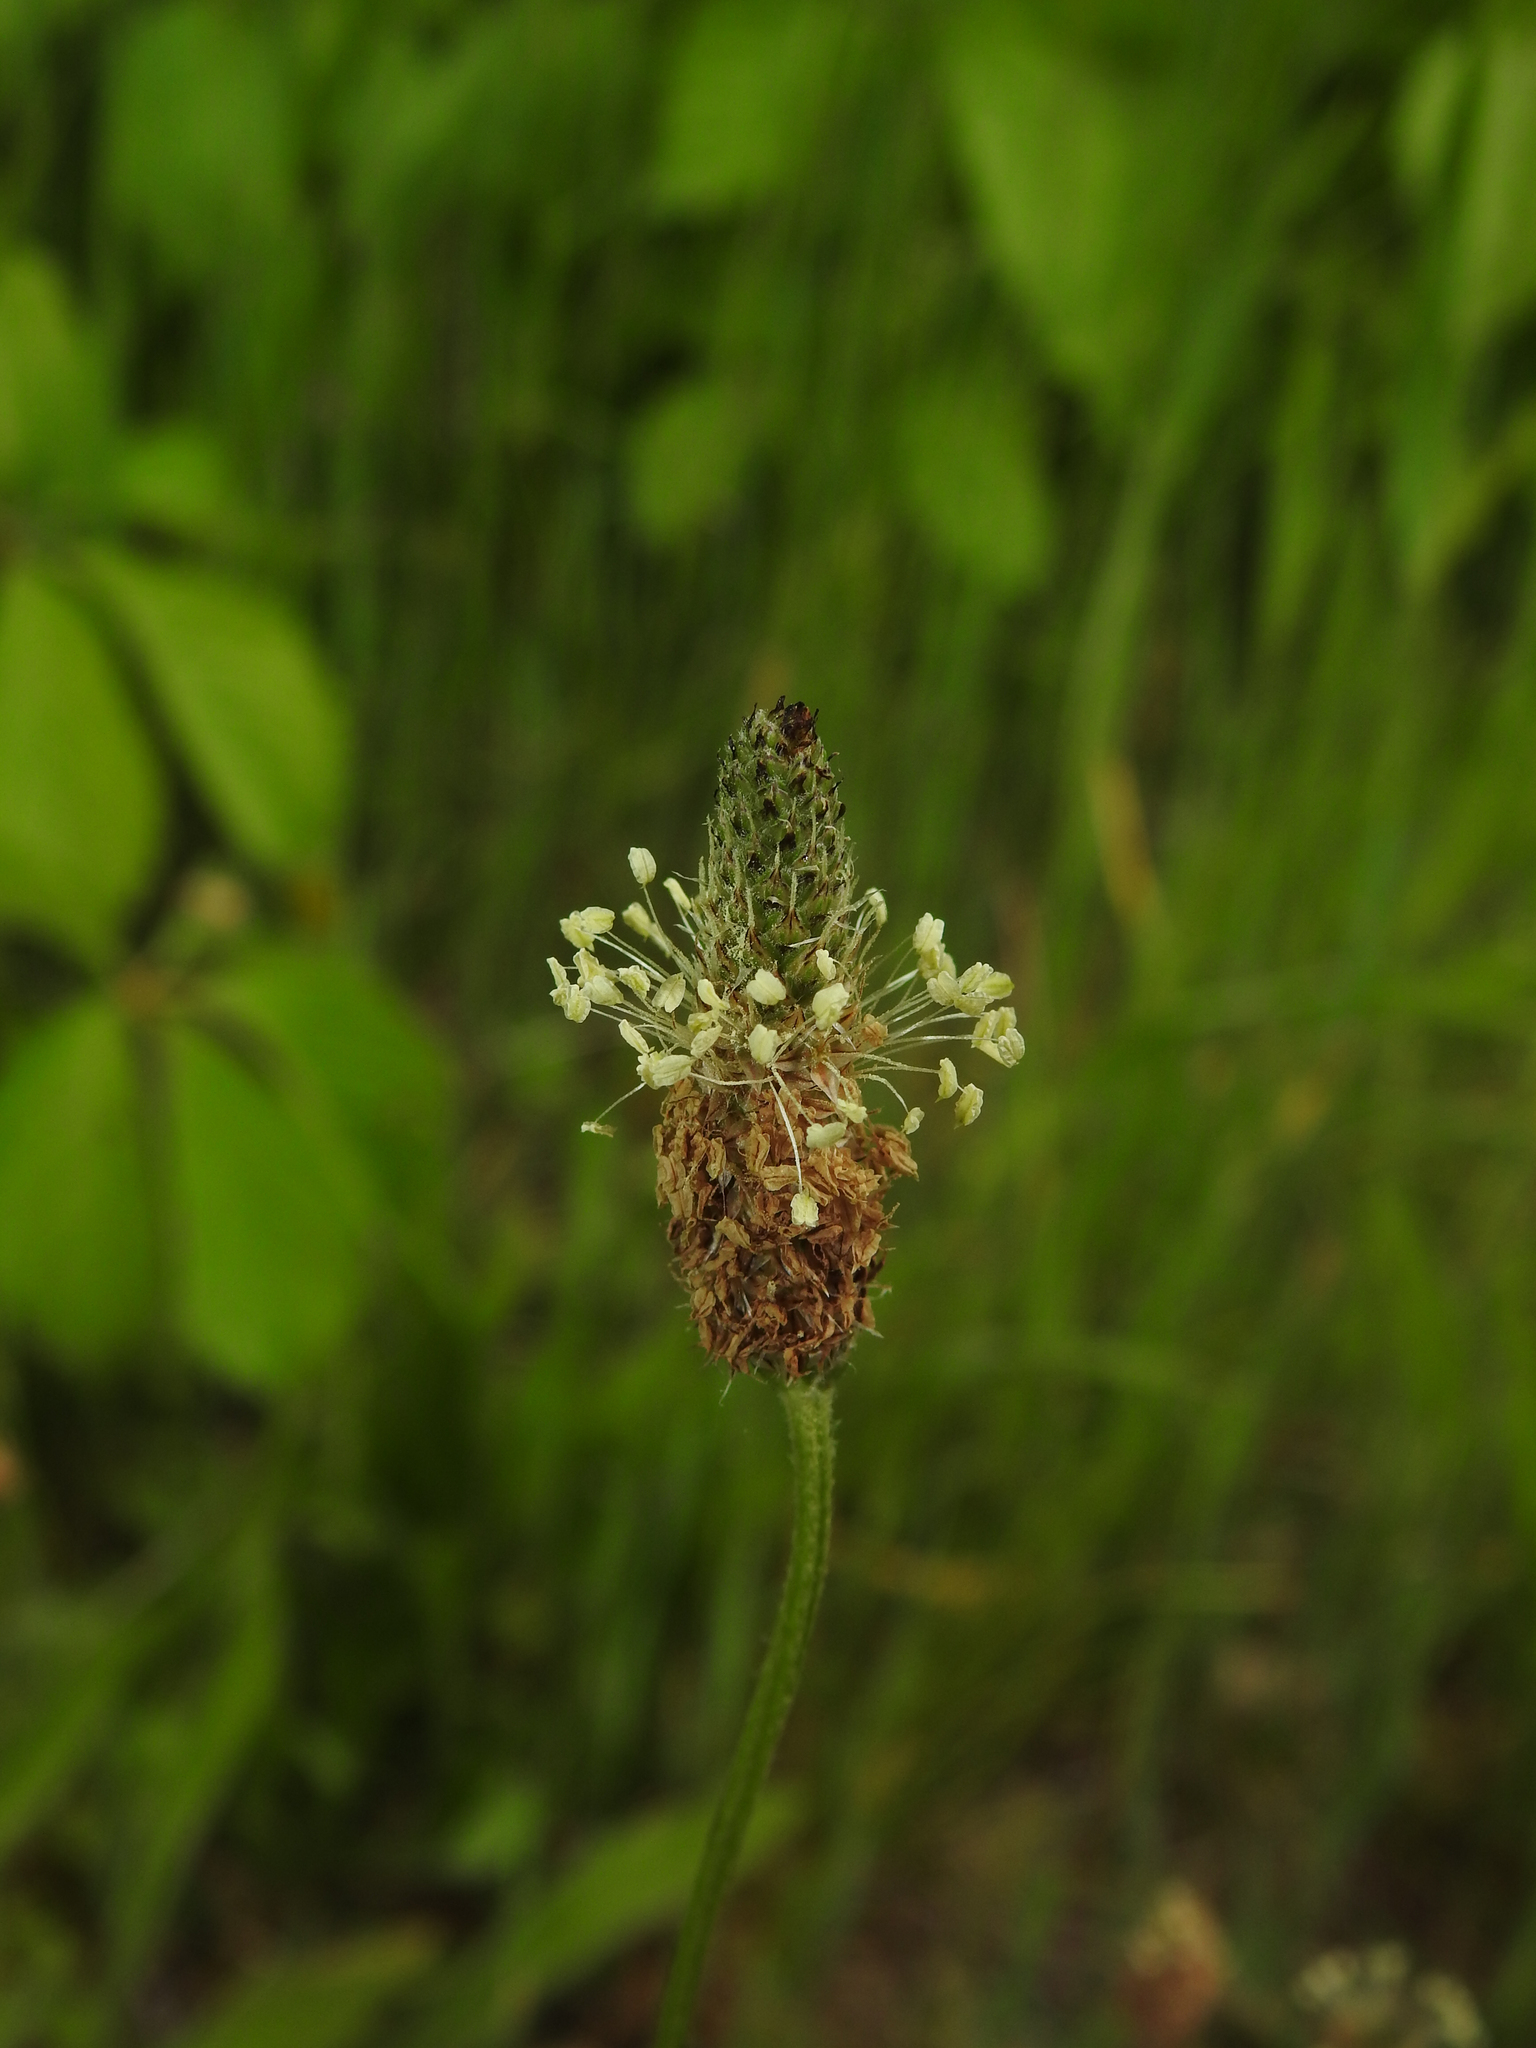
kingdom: Plantae
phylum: Tracheophyta
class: Magnoliopsida
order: Lamiales
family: Plantaginaceae
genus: Plantago
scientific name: Plantago lanceolata
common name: Ribwort plantain
